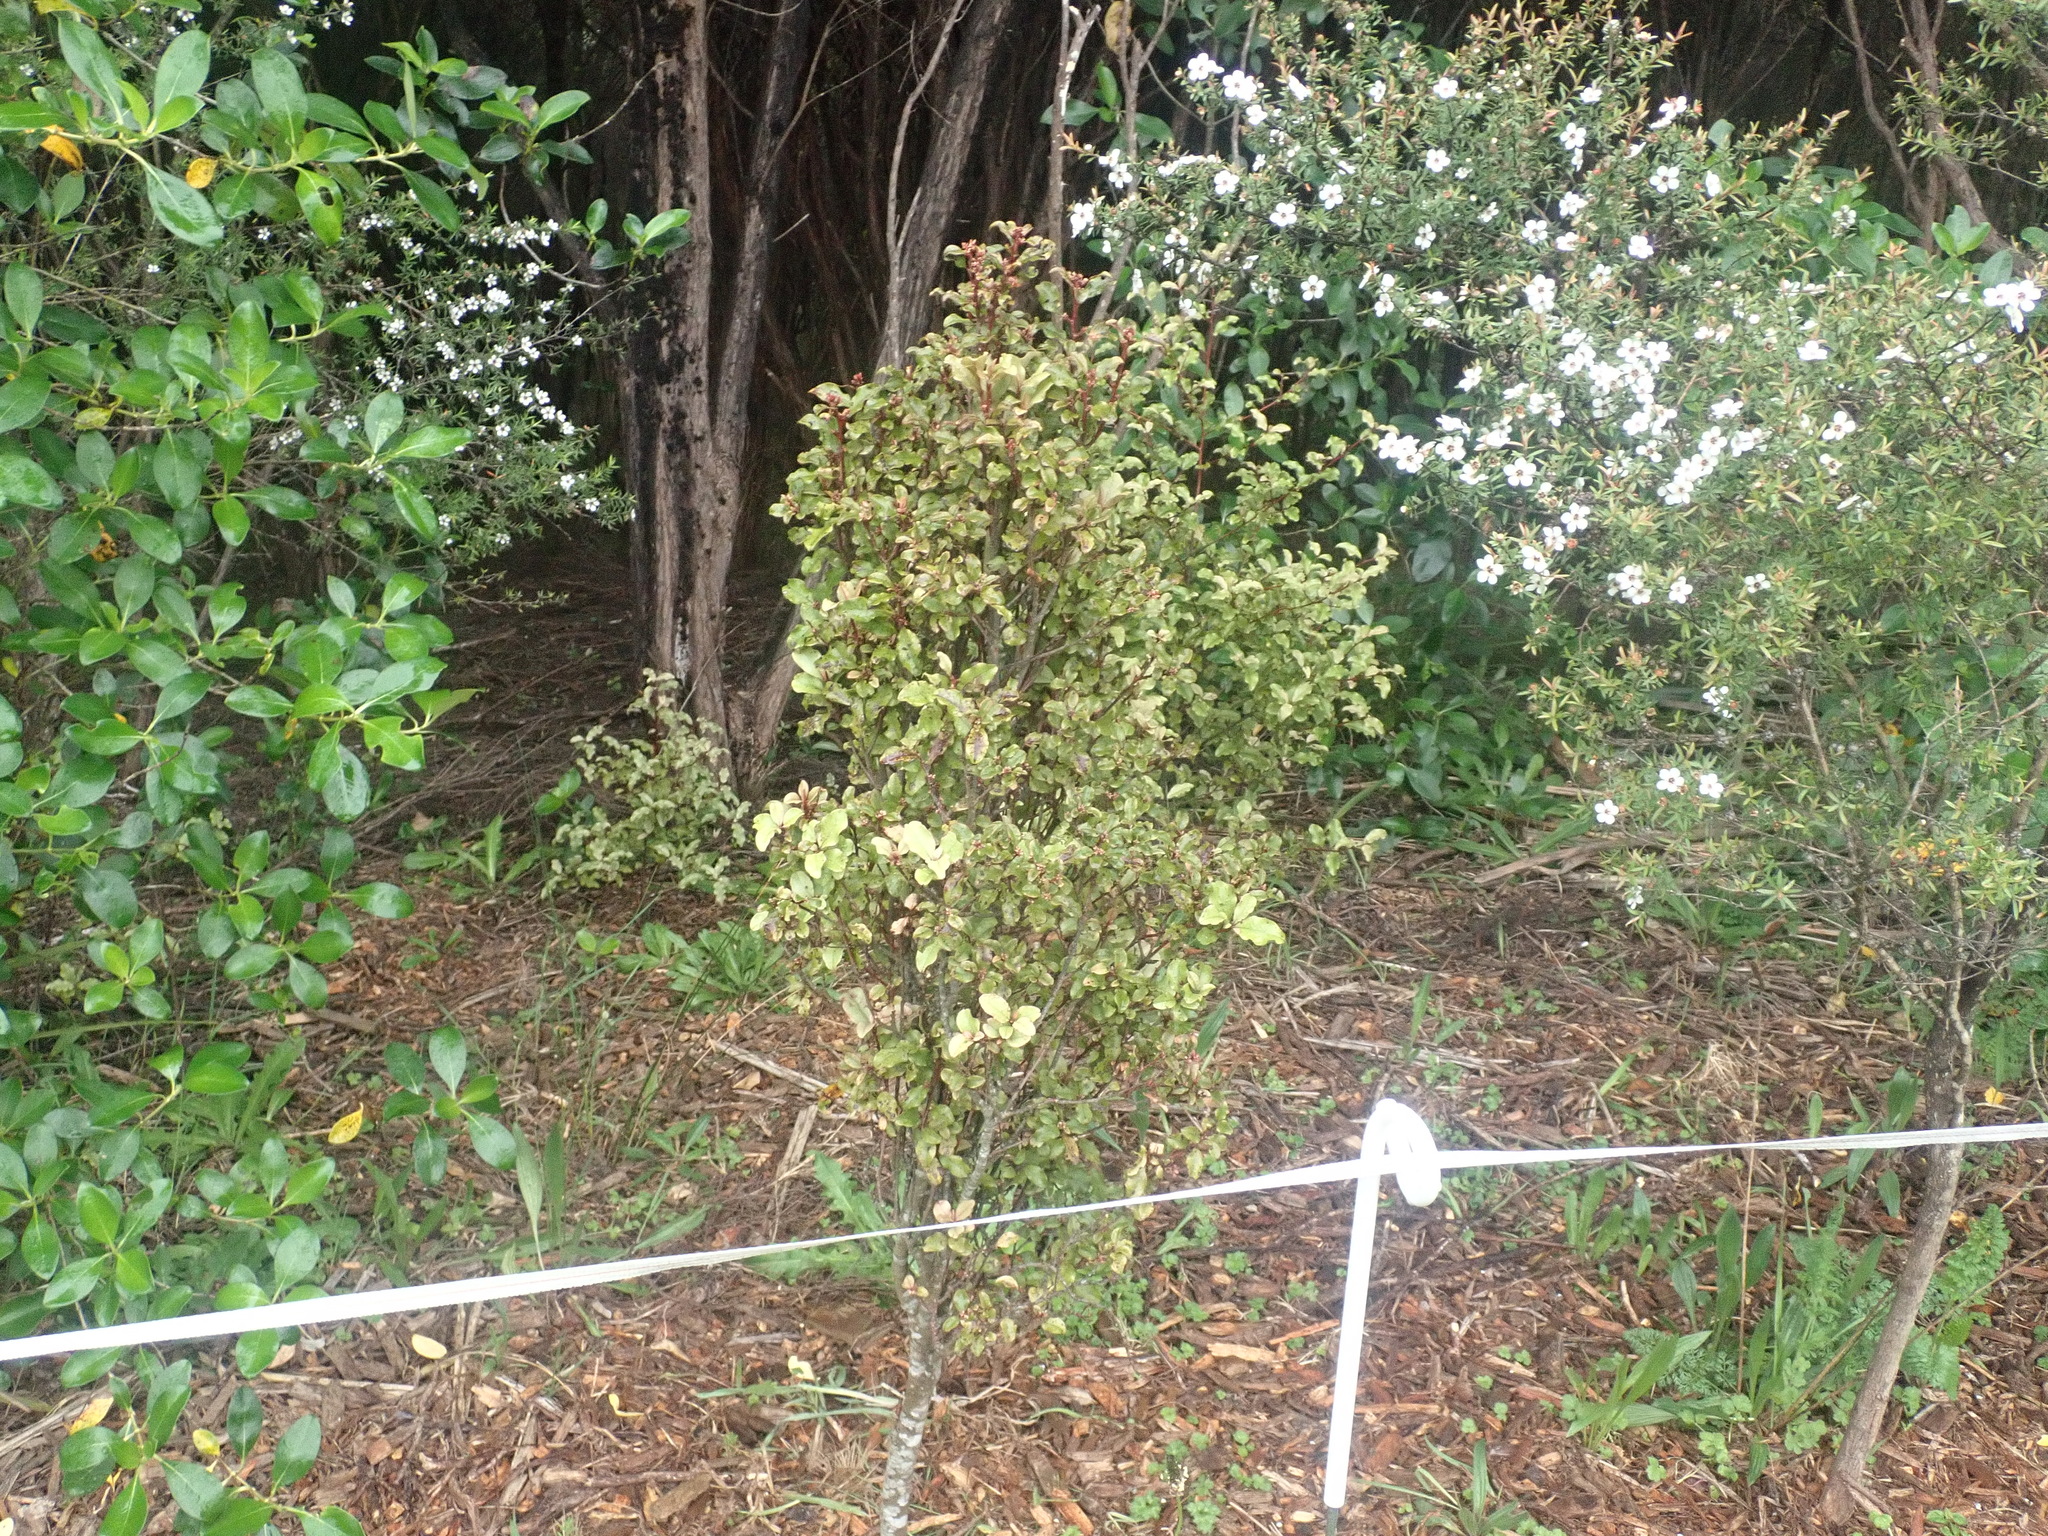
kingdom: Plantae
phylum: Tracheophyta
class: Magnoliopsida
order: Ericales
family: Primulaceae
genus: Myrsine
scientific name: Myrsine australis
